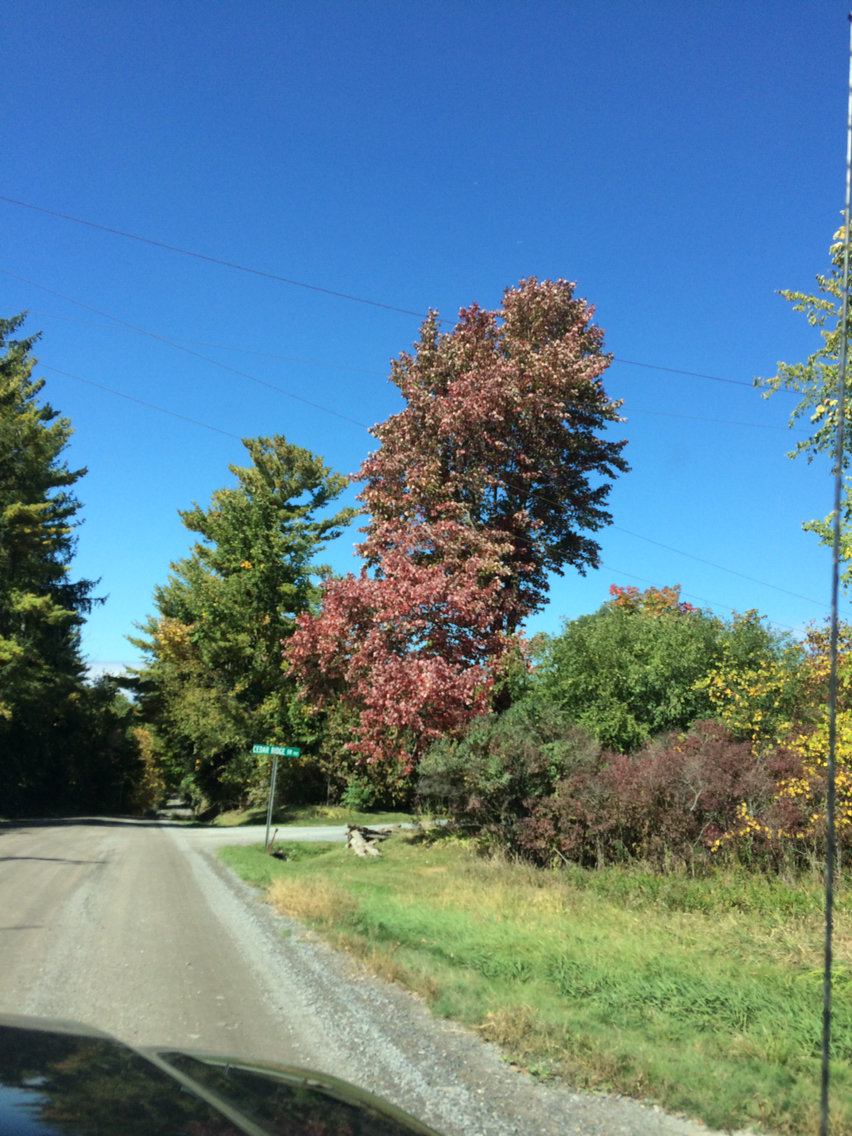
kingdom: Plantae
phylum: Tracheophyta
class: Magnoliopsida
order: Sapindales
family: Sapindaceae
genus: Acer
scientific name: Acer rubrum
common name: Red maple
